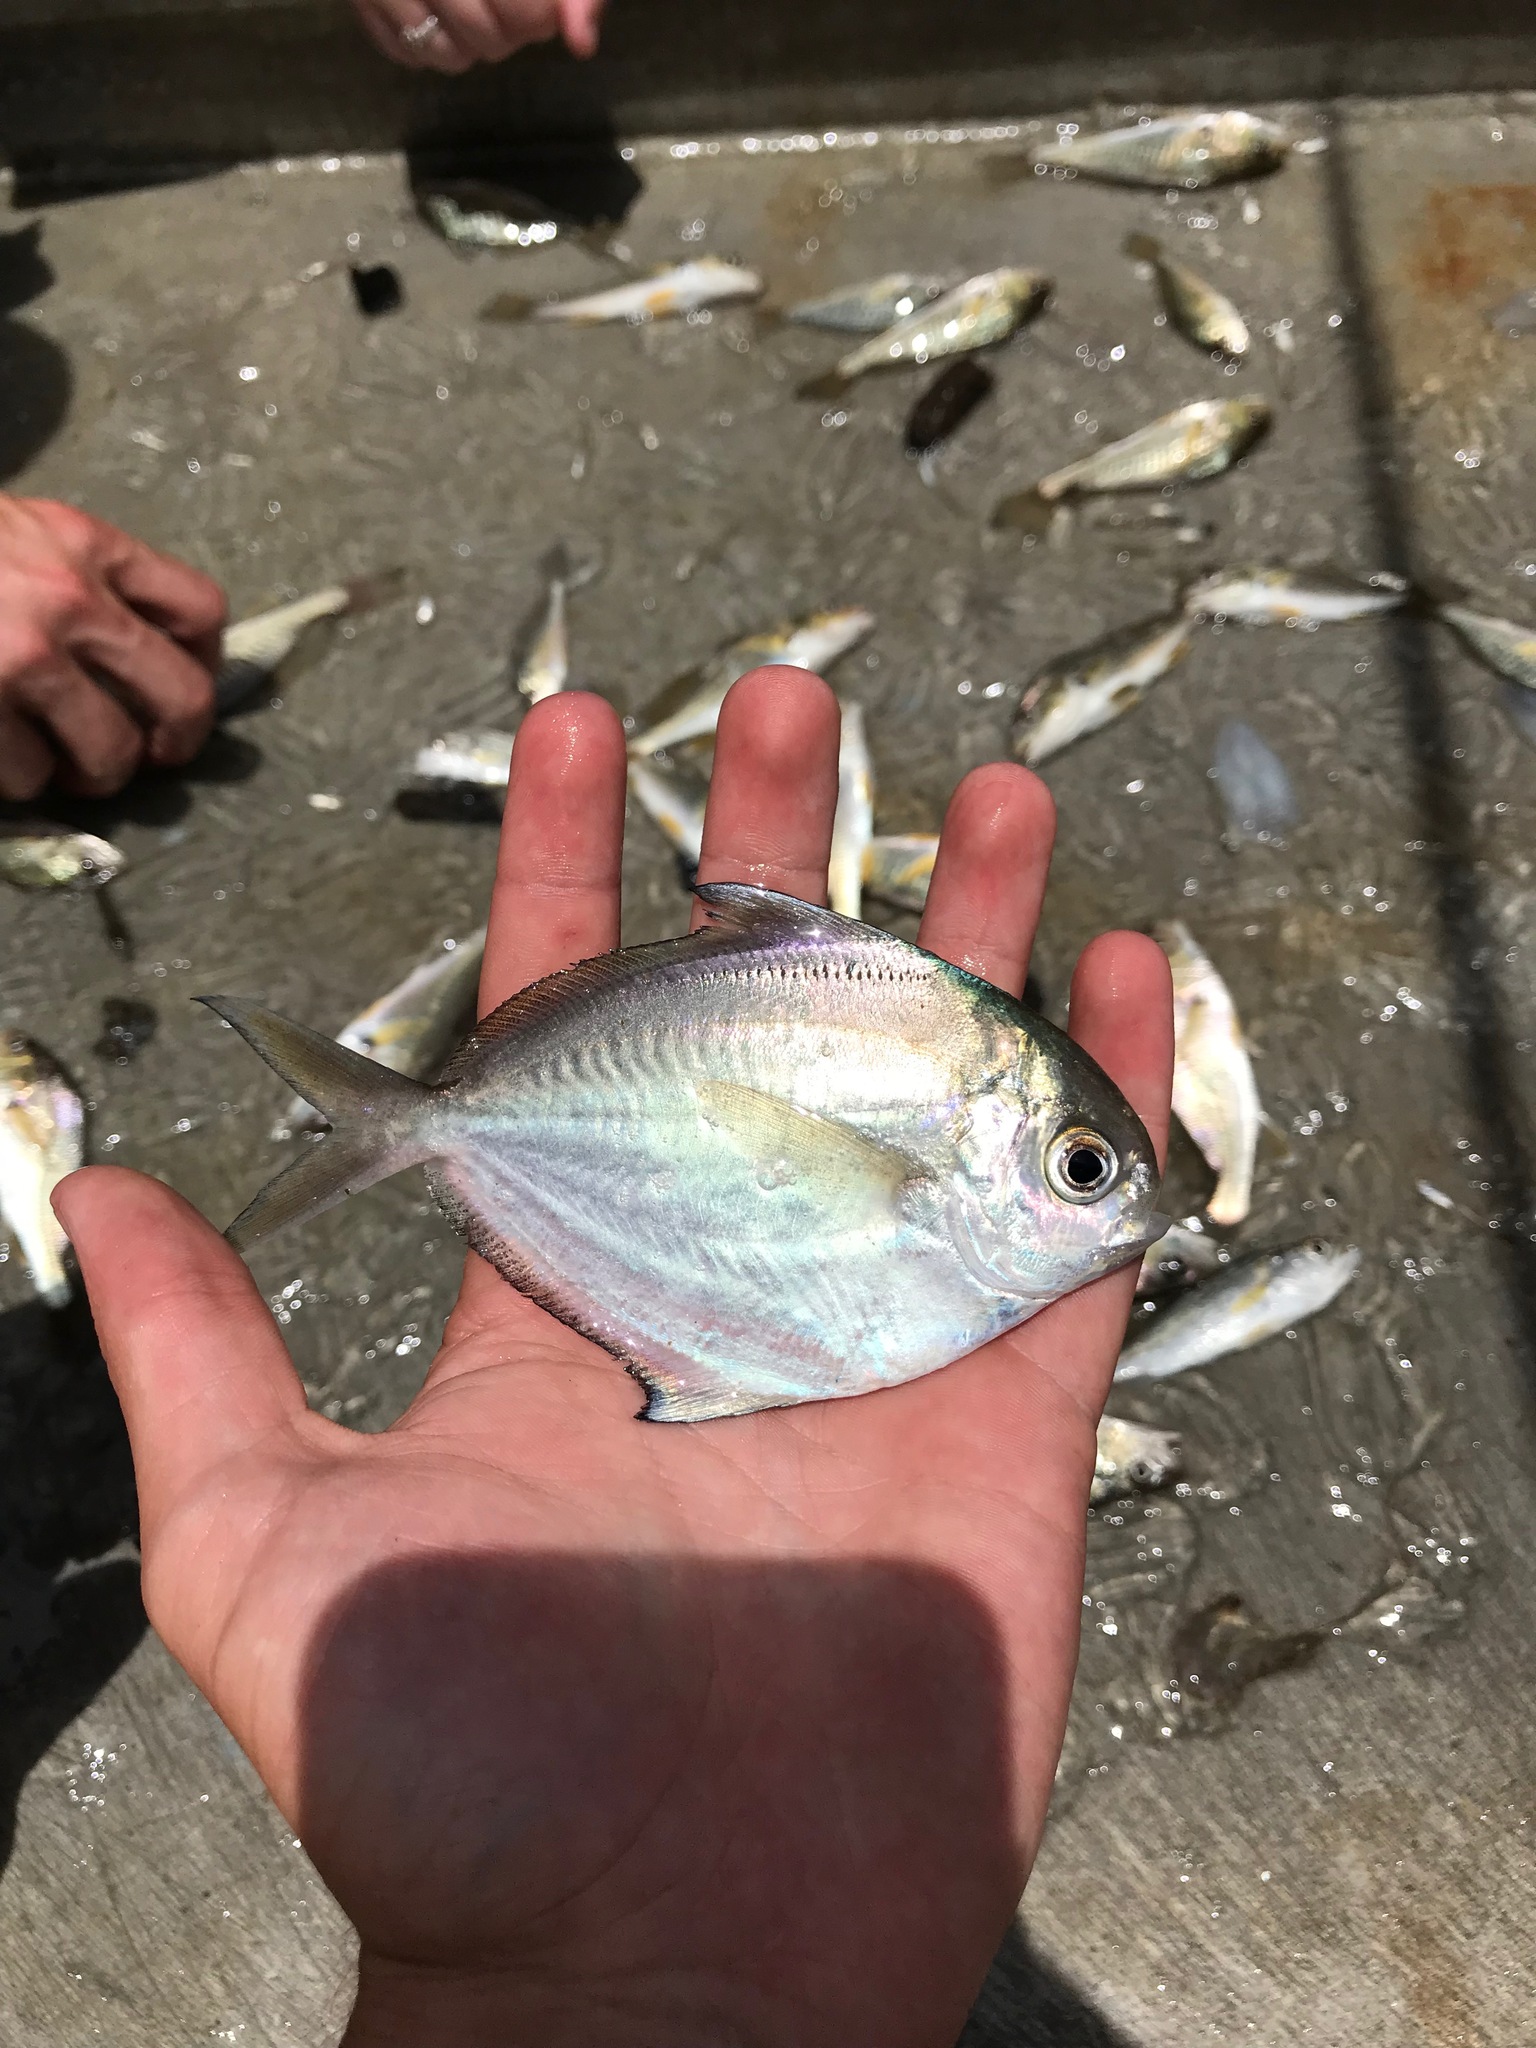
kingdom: Animalia
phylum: Chordata
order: Perciformes
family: Stromateidae
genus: Peprilus
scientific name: Peprilus triacanthus
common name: Butterfish
